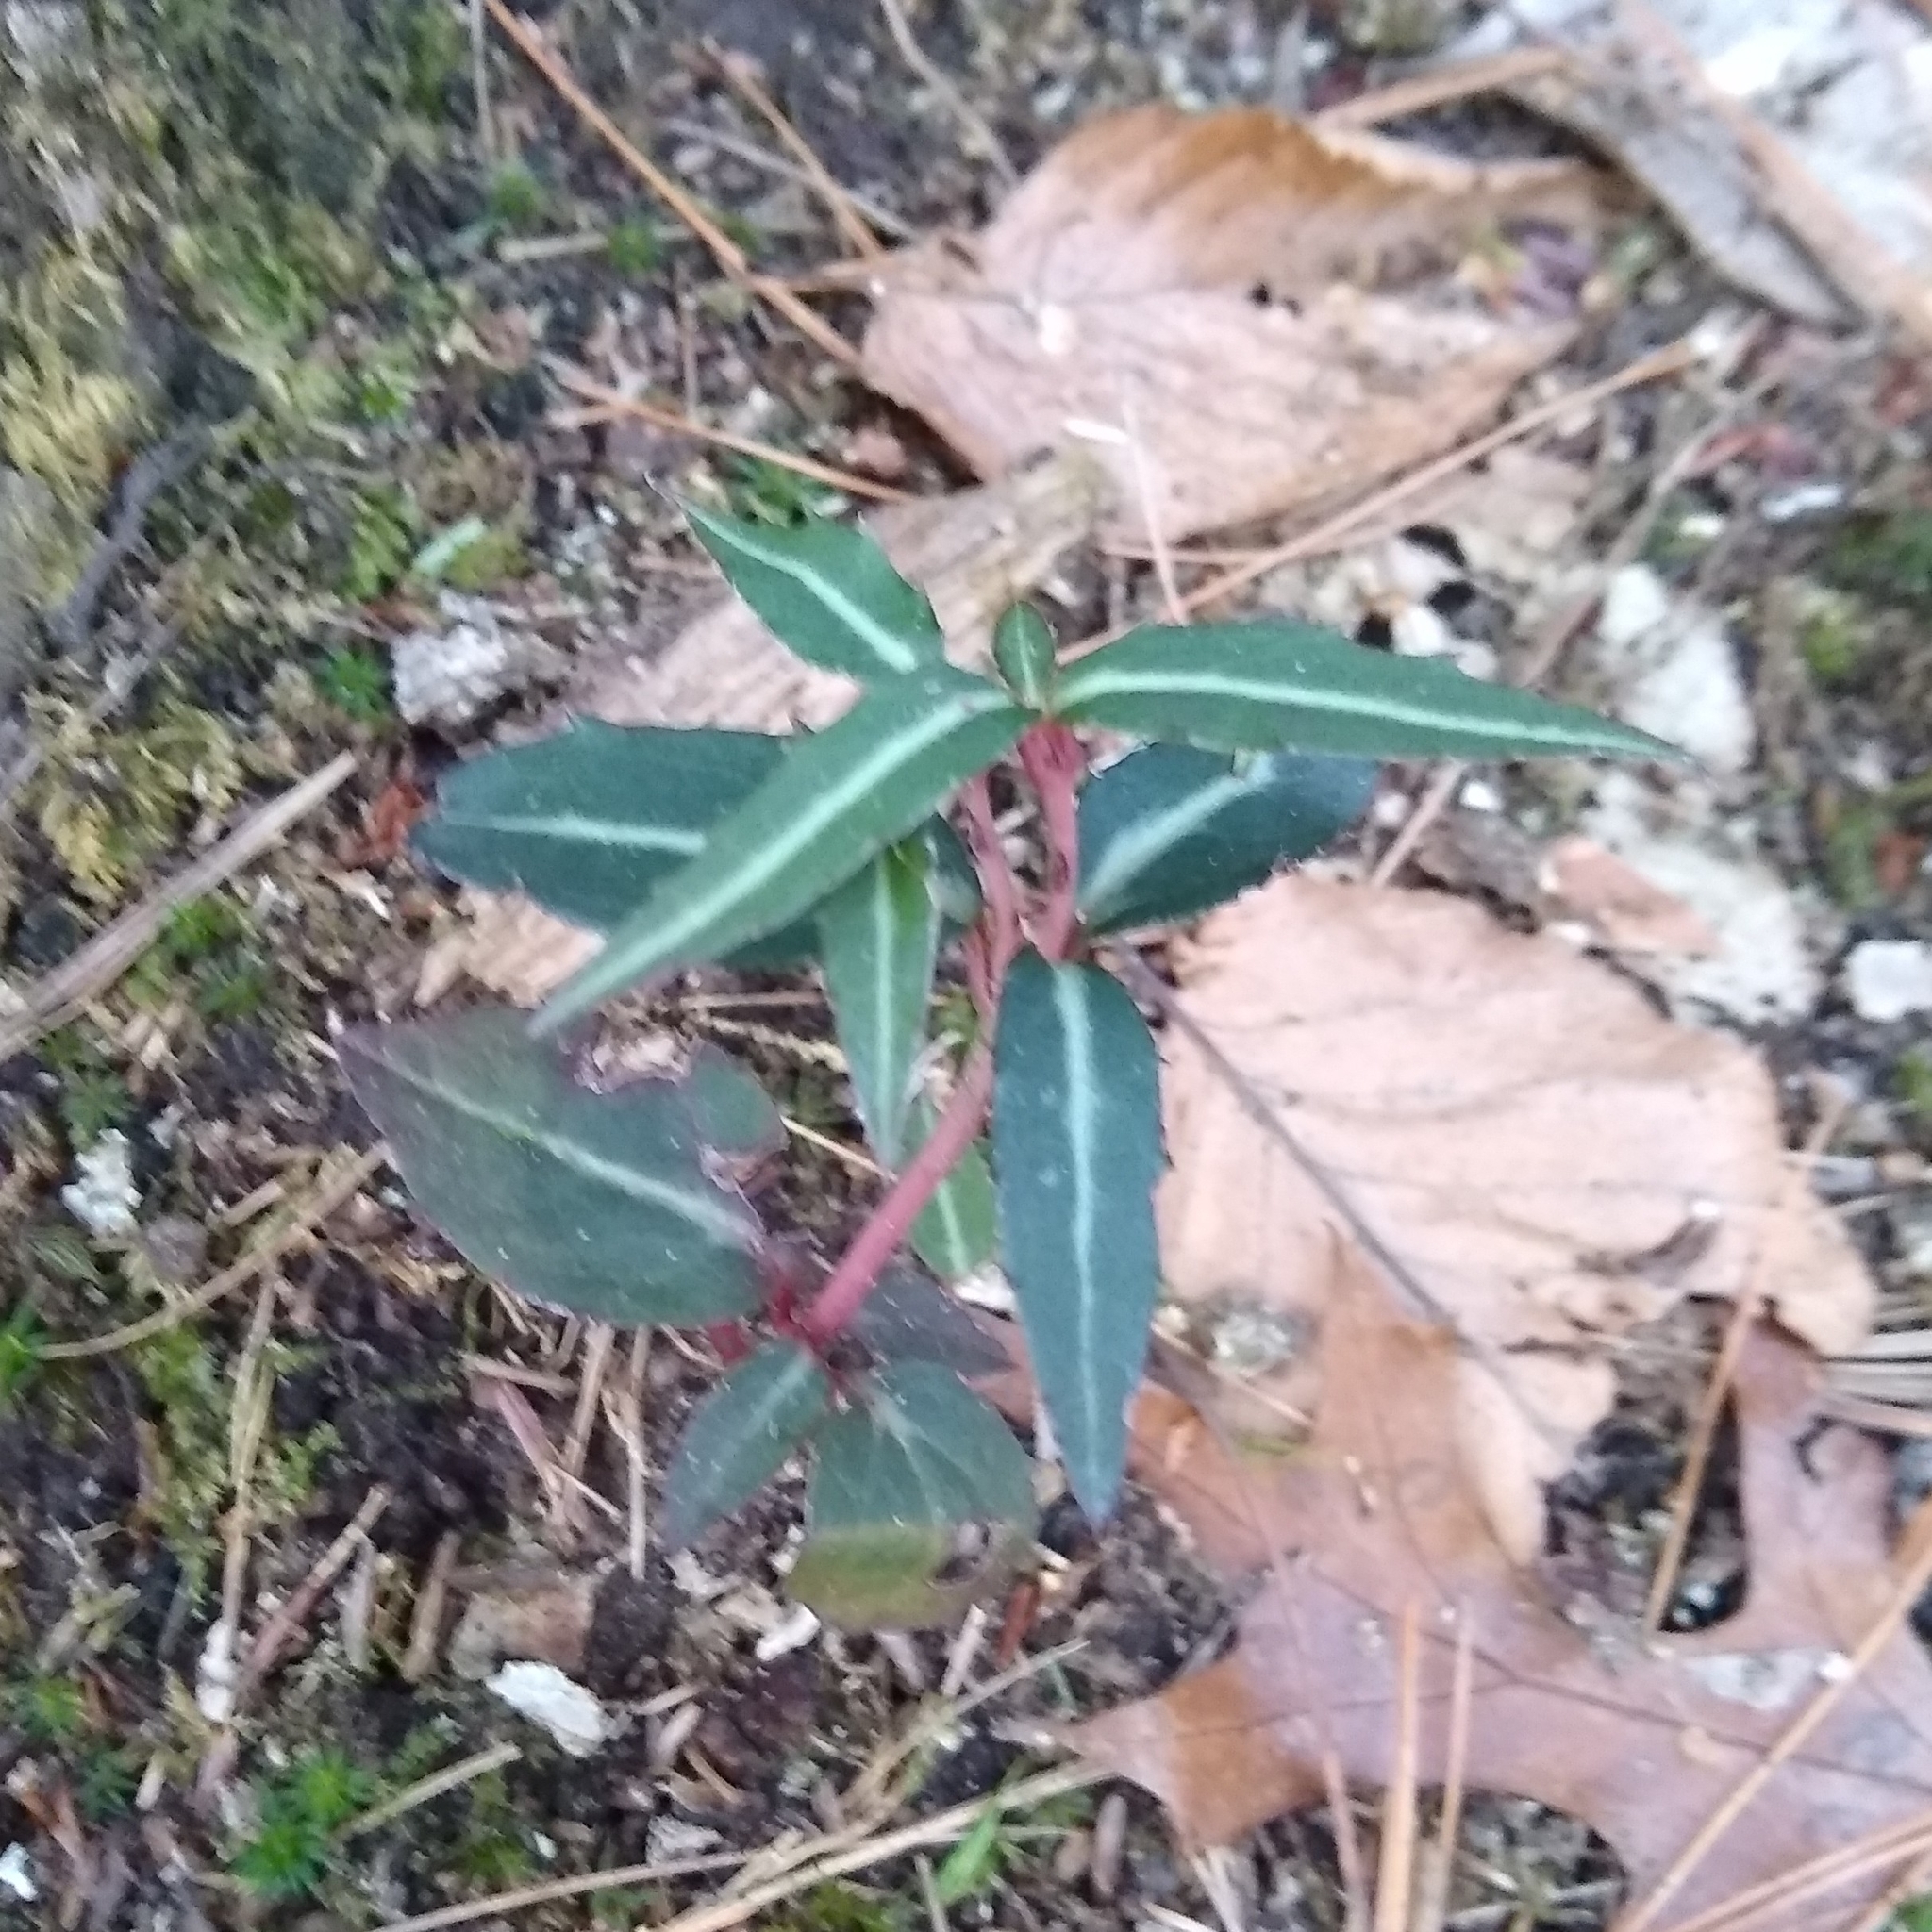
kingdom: Plantae
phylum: Tracheophyta
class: Magnoliopsida
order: Ericales
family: Ericaceae
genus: Chimaphila
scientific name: Chimaphila maculata
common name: Spotted pipsissewa
